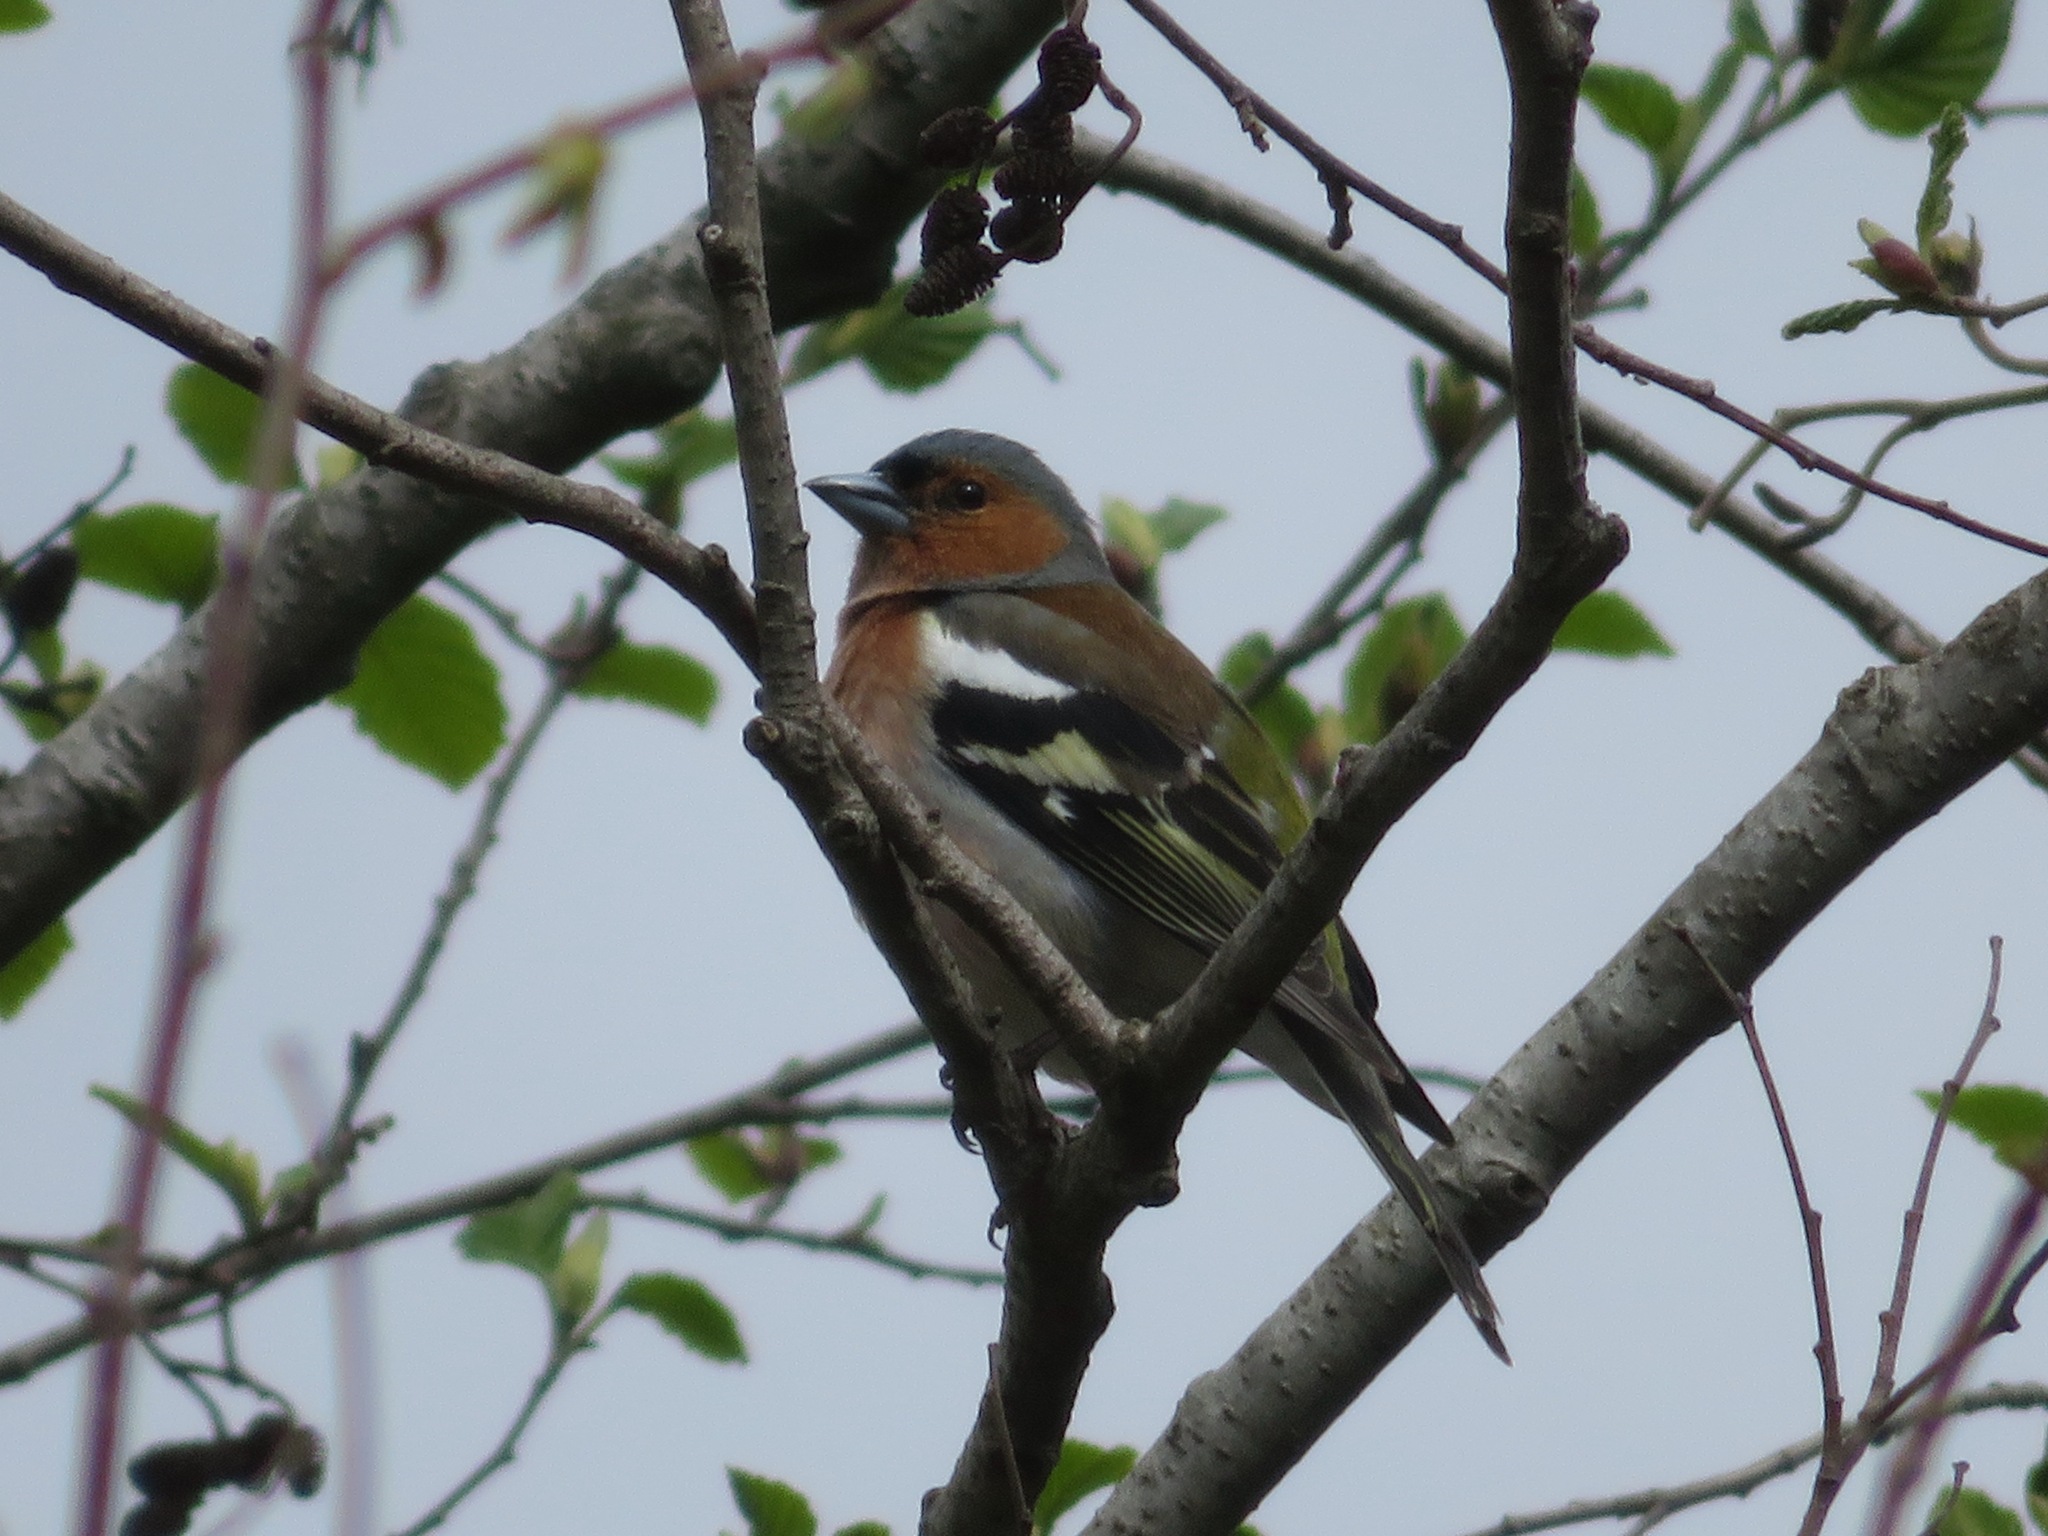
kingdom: Animalia
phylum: Chordata
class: Aves
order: Passeriformes
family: Fringillidae
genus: Fringilla
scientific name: Fringilla coelebs
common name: Common chaffinch
